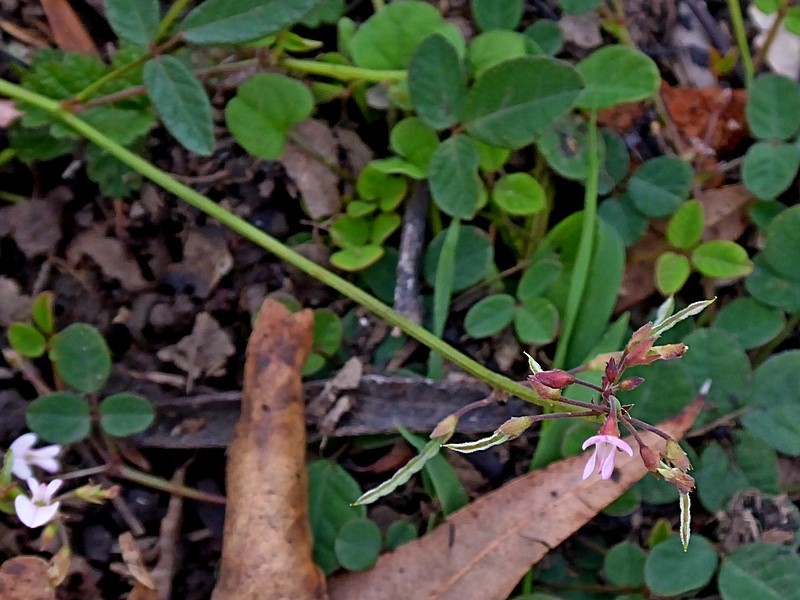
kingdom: Plantae
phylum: Tracheophyta
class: Magnoliopsida
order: Fabales
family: Fabaceae
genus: Grona
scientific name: Grona varians
